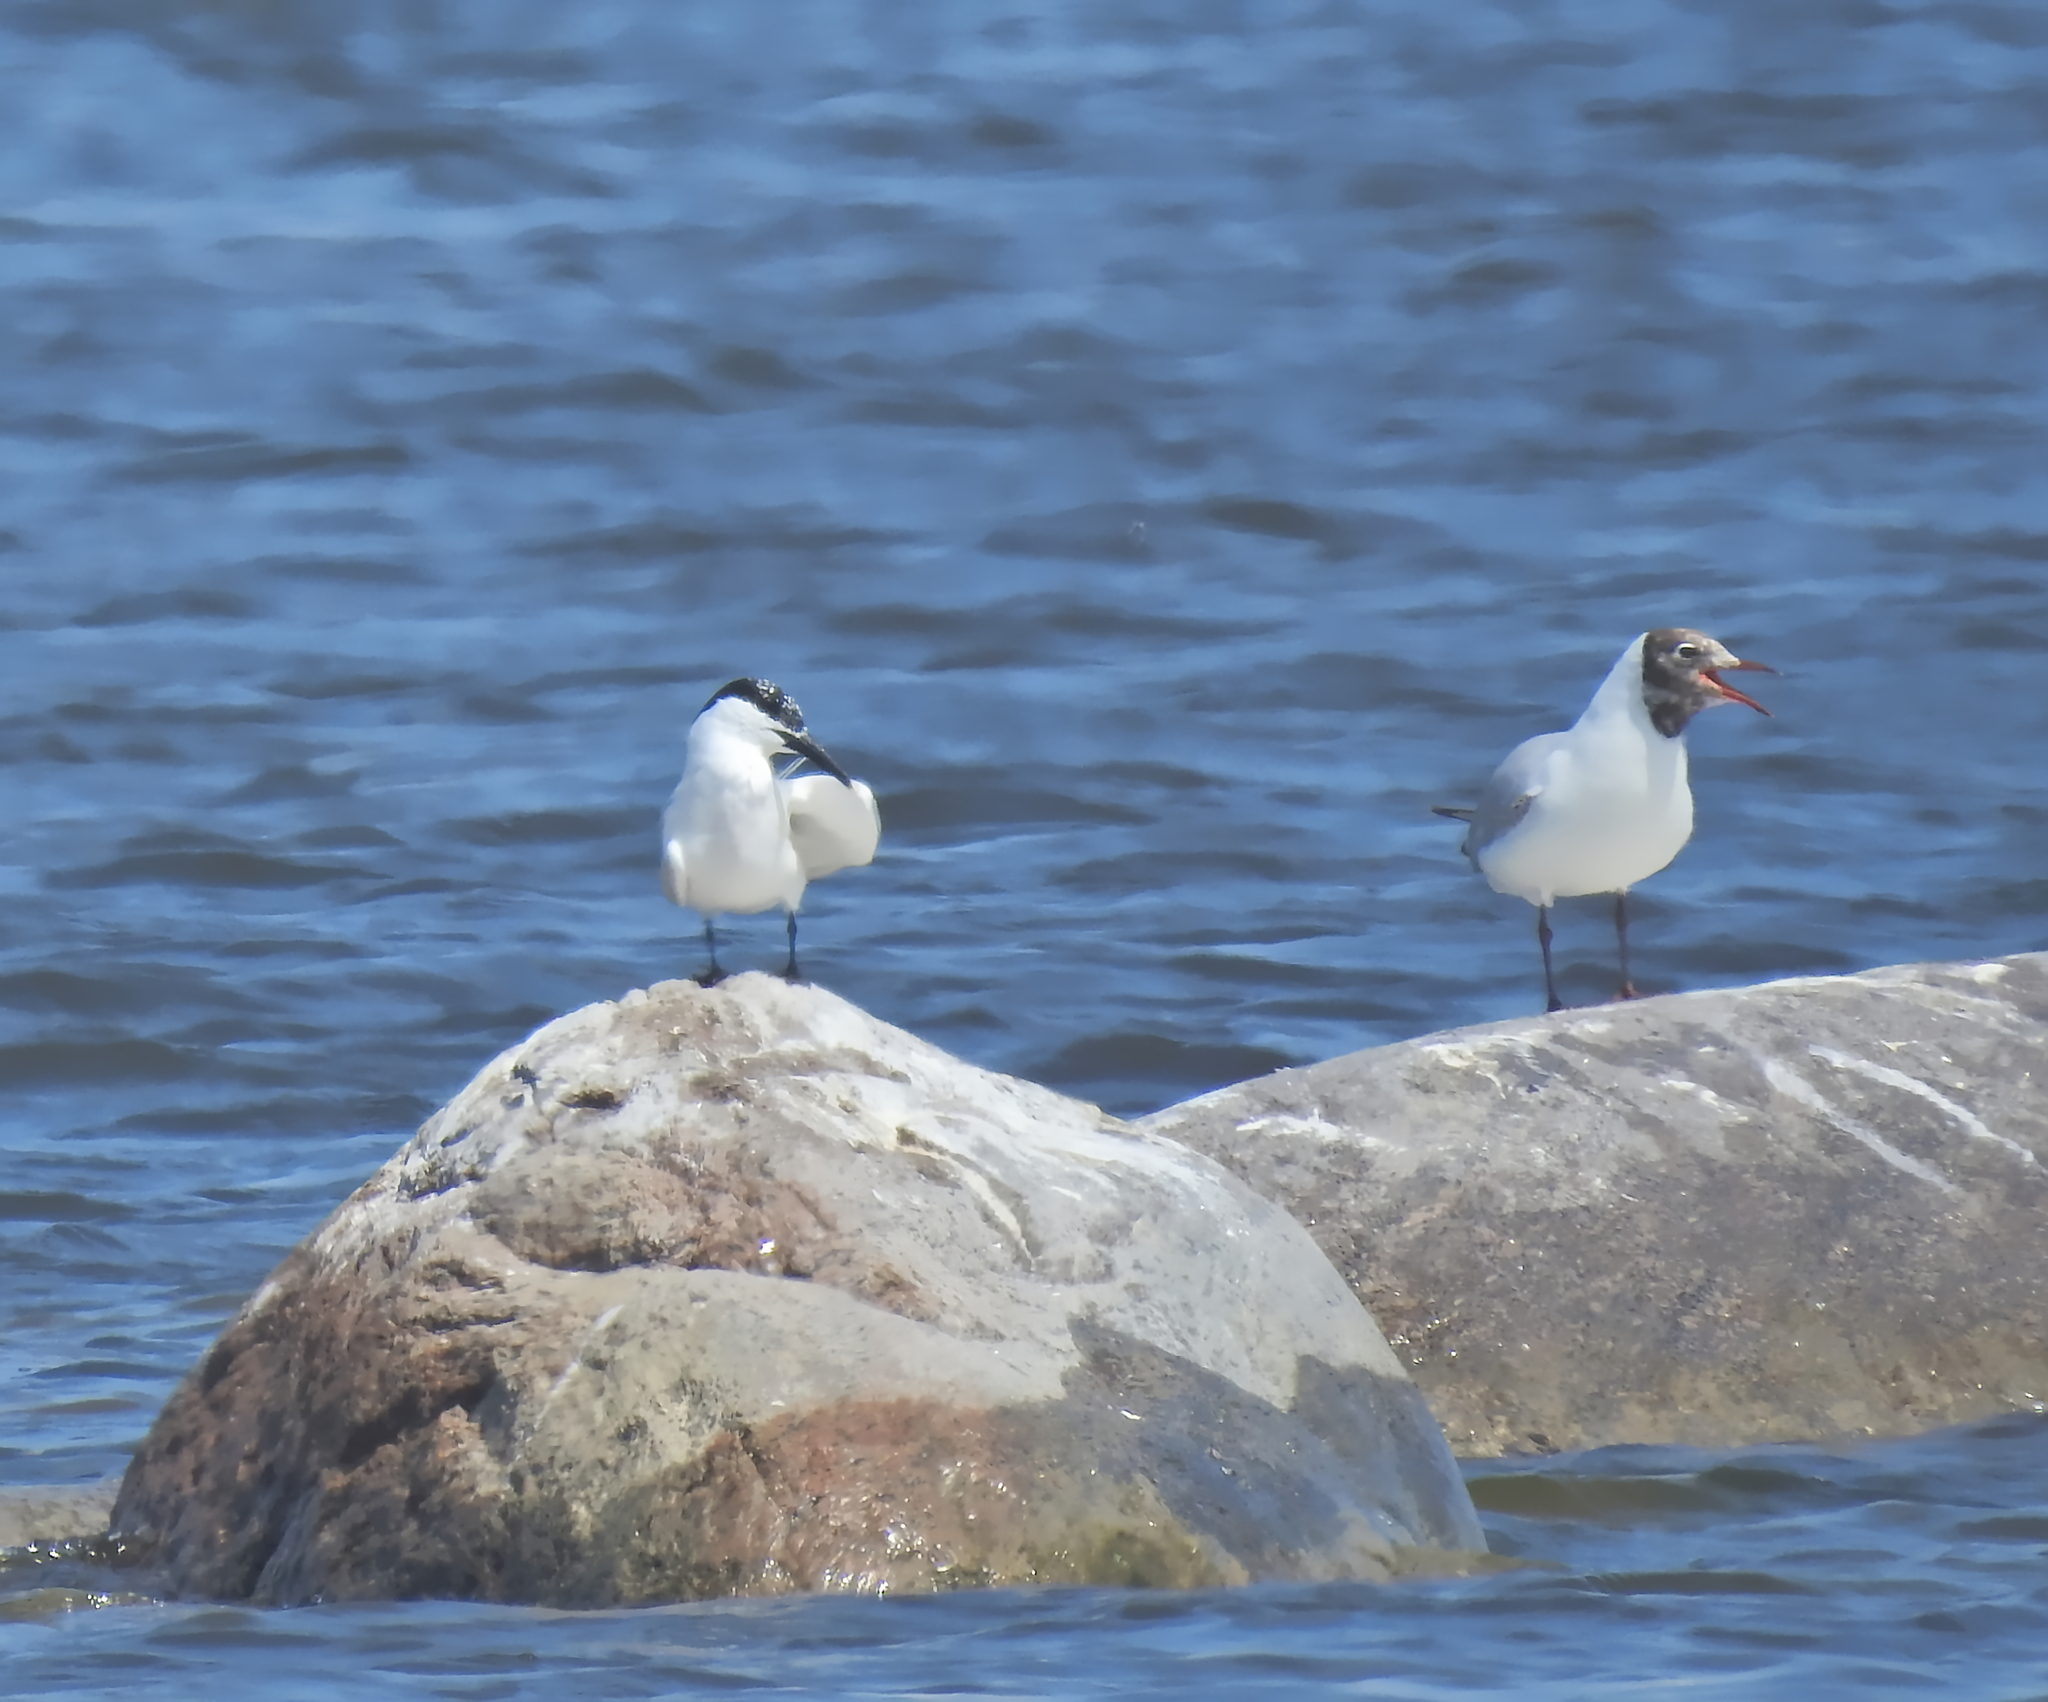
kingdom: Animalia
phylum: Chordata
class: Aves
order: Charadriiformes
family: Laridae
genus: Thalasseus
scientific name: Thalasseus sandvicensis
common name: Sandwich tern
